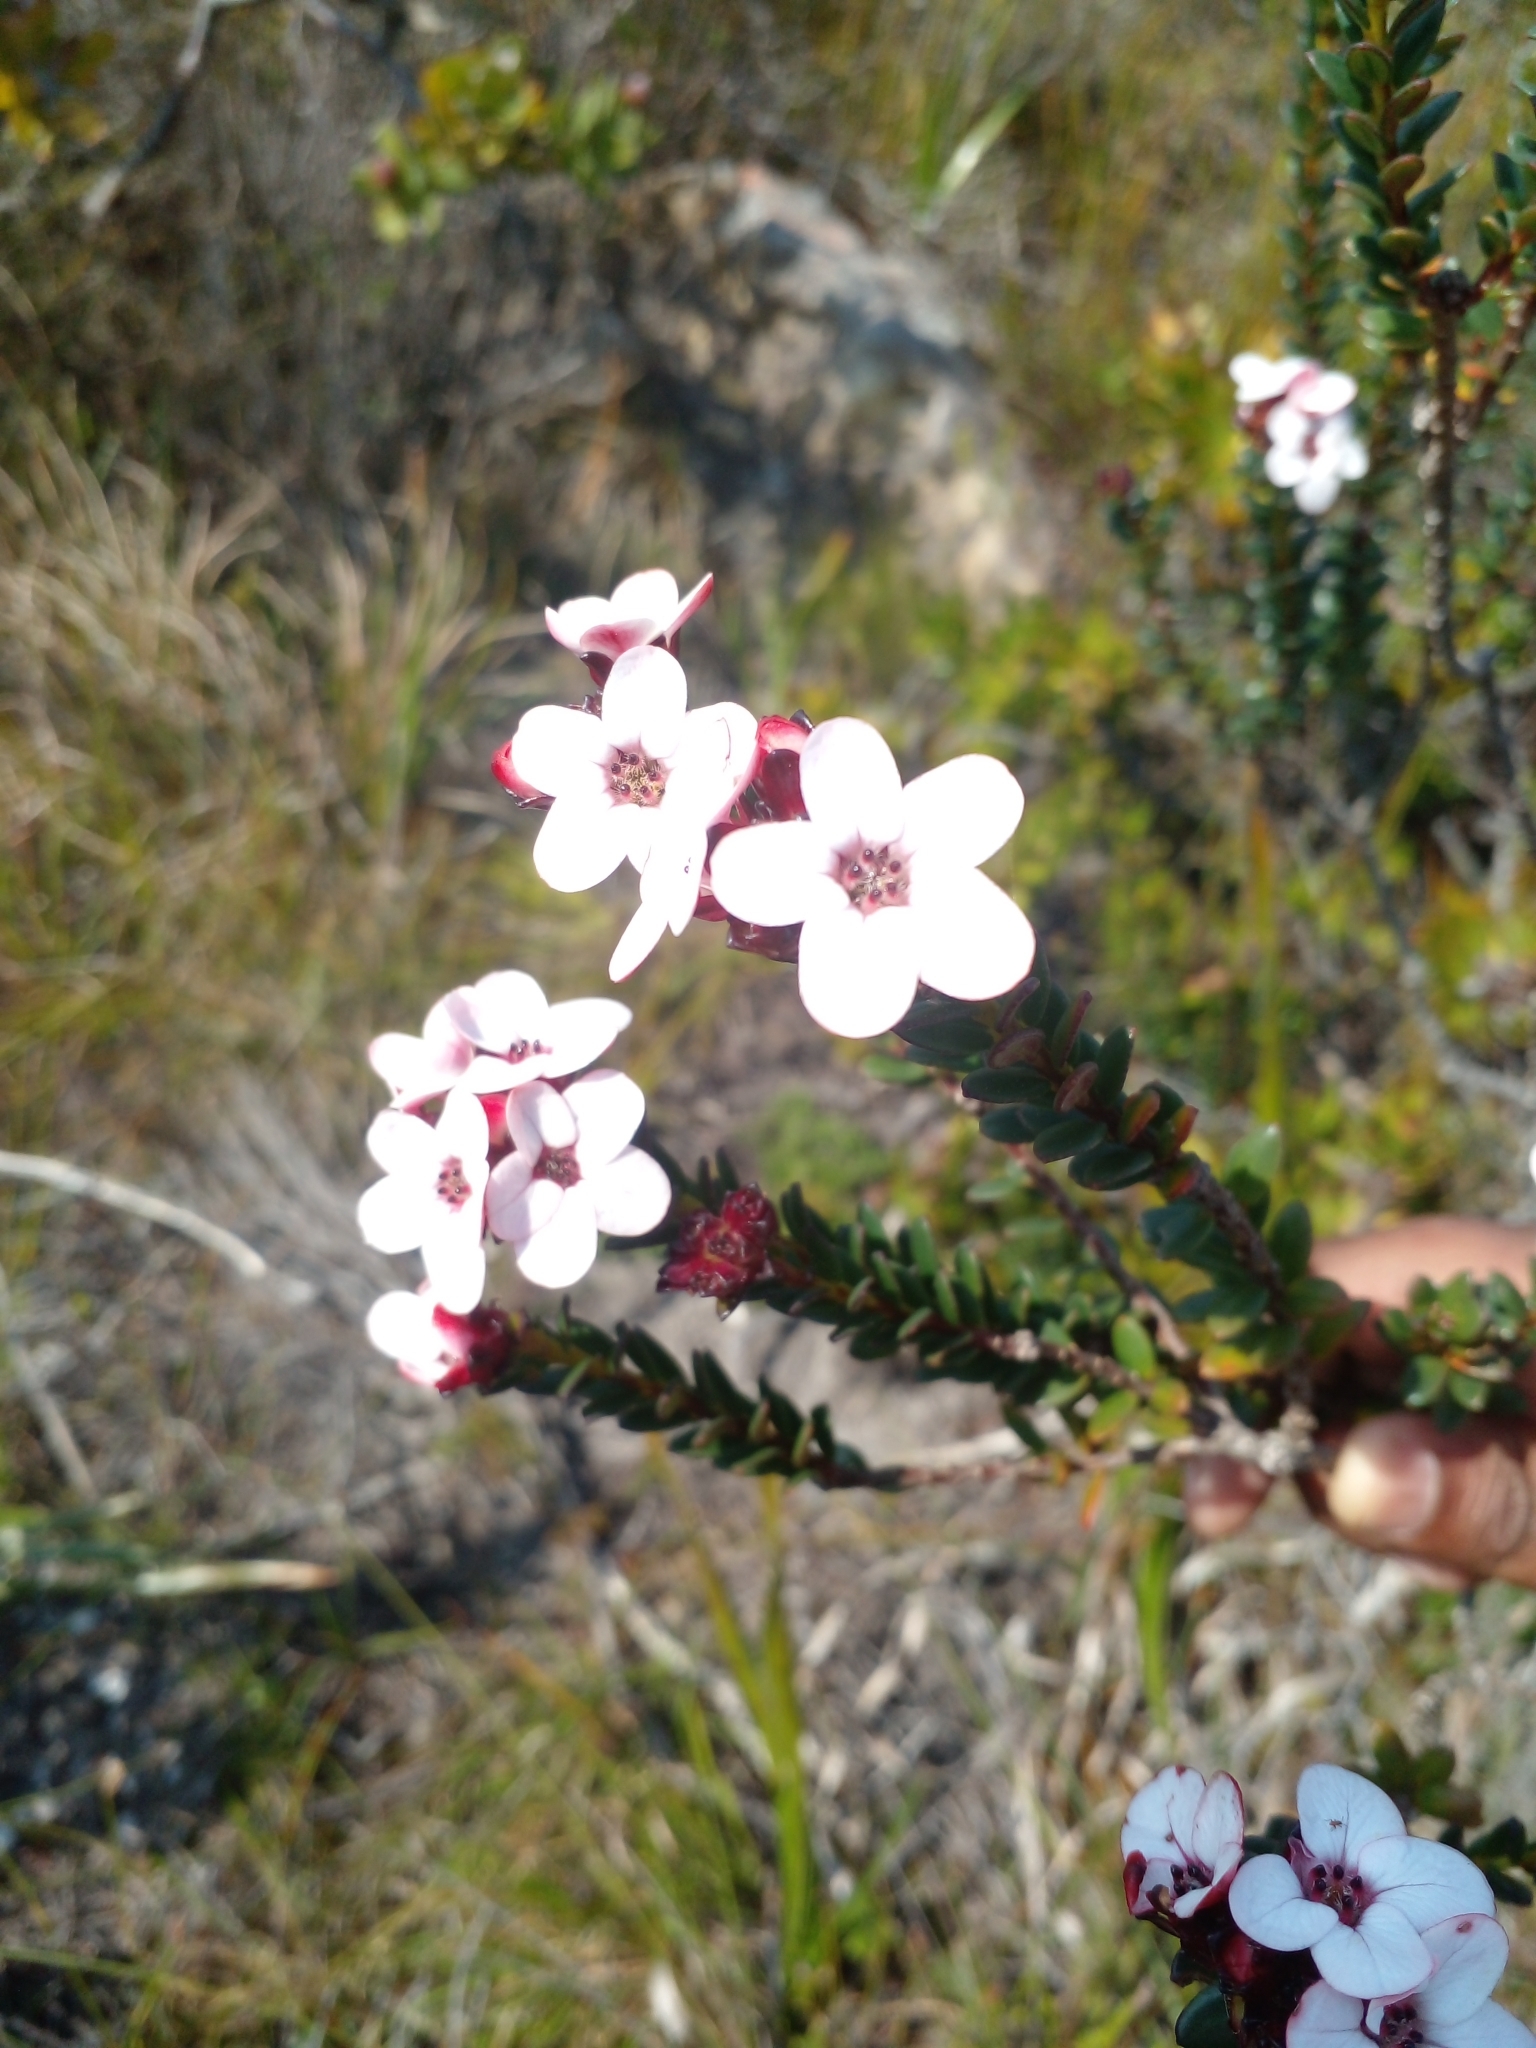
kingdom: Plantae
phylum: Tracheophyta
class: Magnoliopsida
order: Sapindales
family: Rutaceae
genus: Adenandra
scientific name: Adenandra uniflora
